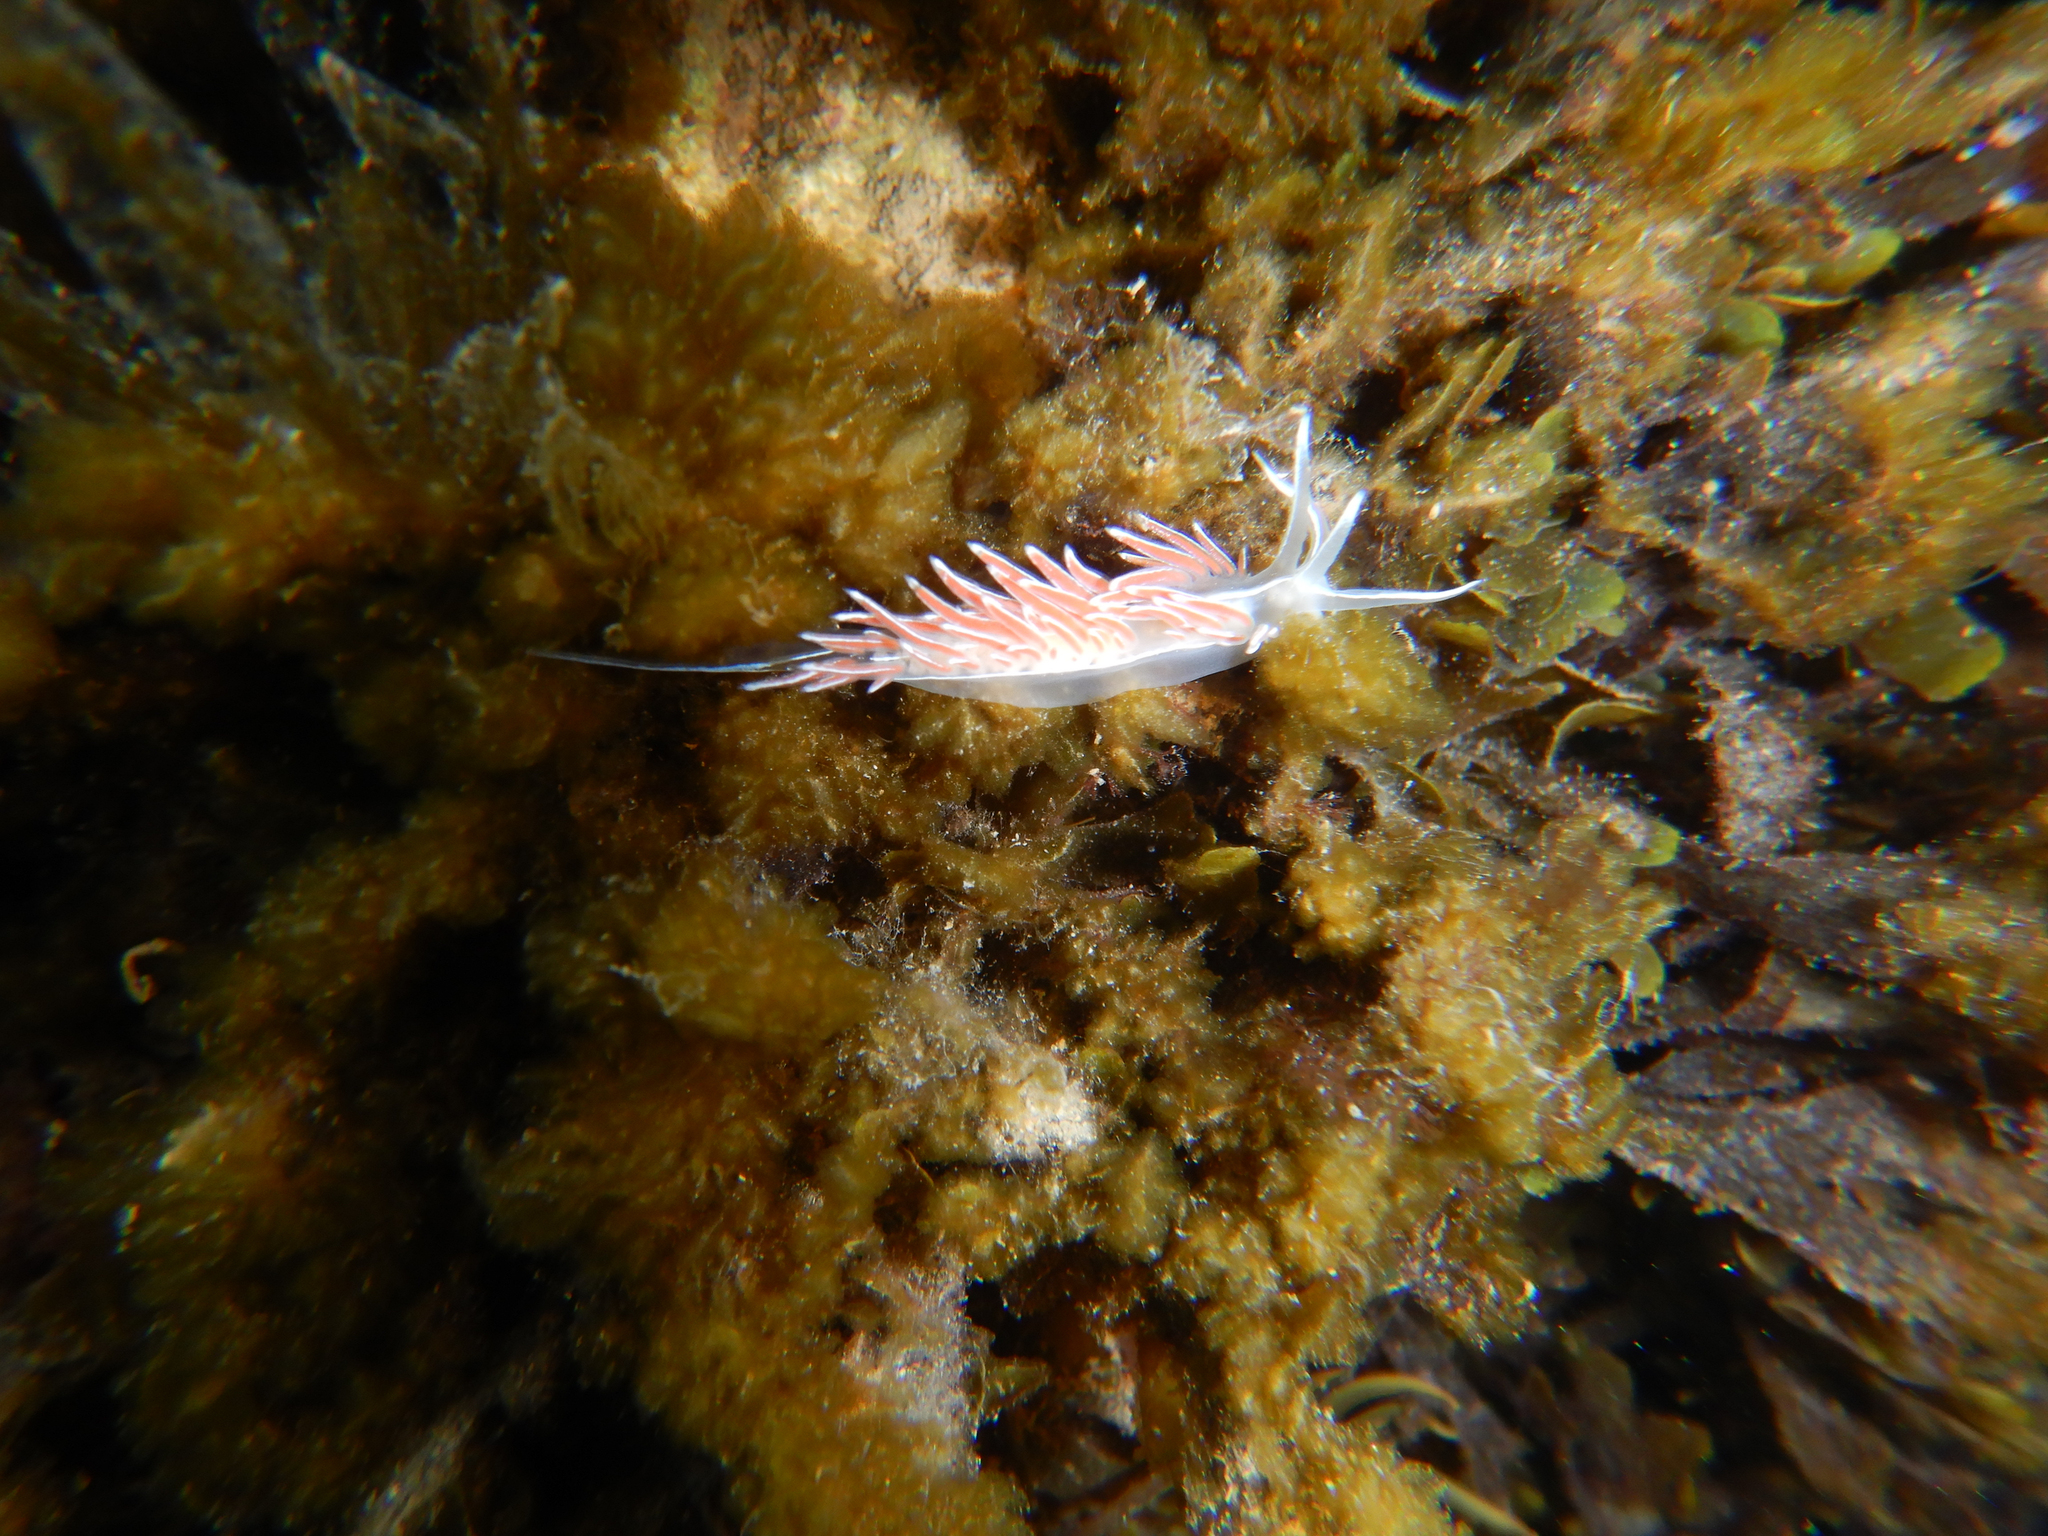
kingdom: Animalia
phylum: Mollusca
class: Gastropoda
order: Nudibranchia
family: Coryphellidae
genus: Coryphella
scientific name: Coryphella lineata
